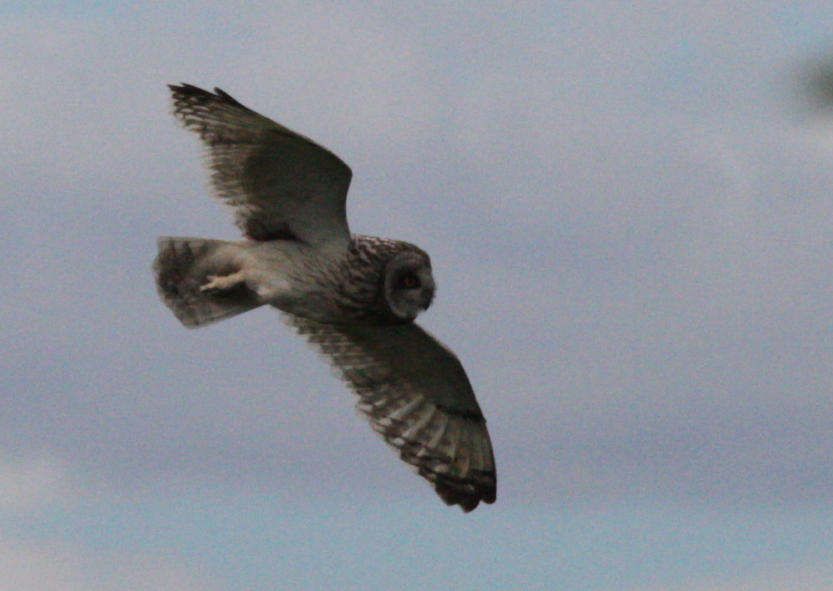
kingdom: Animalia
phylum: Chordata
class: Aves
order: Strigiformes
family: Strigidae
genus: Asio
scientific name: Asio flammeus
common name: Short-eared owl
